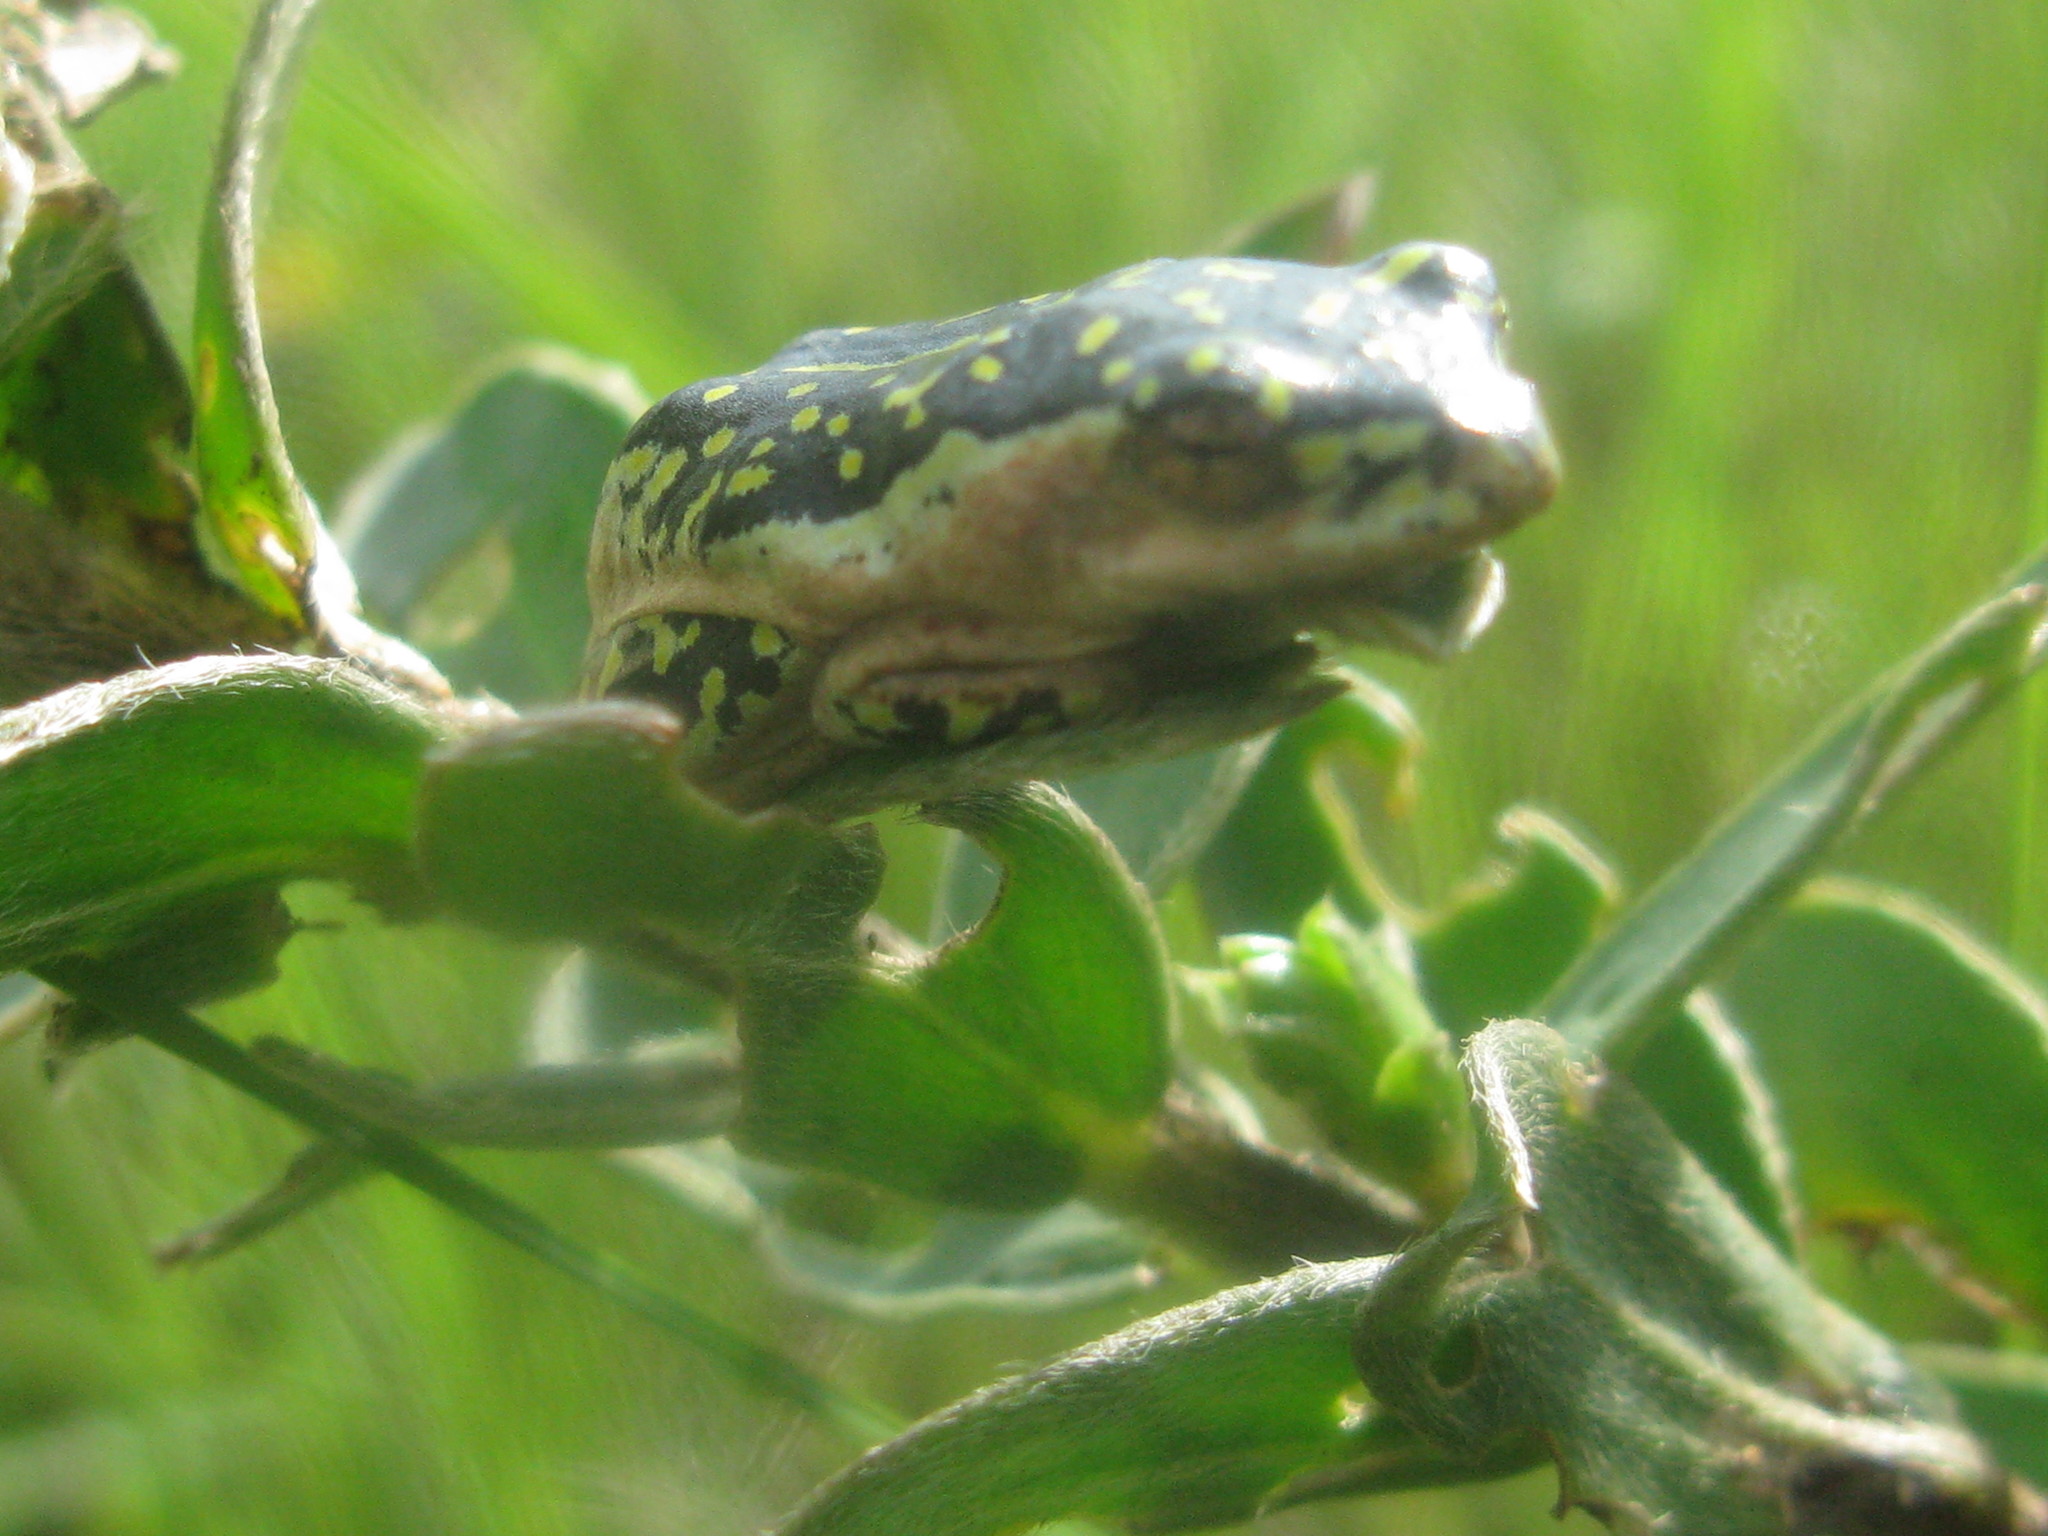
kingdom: Animalia
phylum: Chordata
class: Amphibia
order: Anura
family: Hyperoliidae
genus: Hyperolius
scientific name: Hyperolius marmoratus
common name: Painted reed frog
